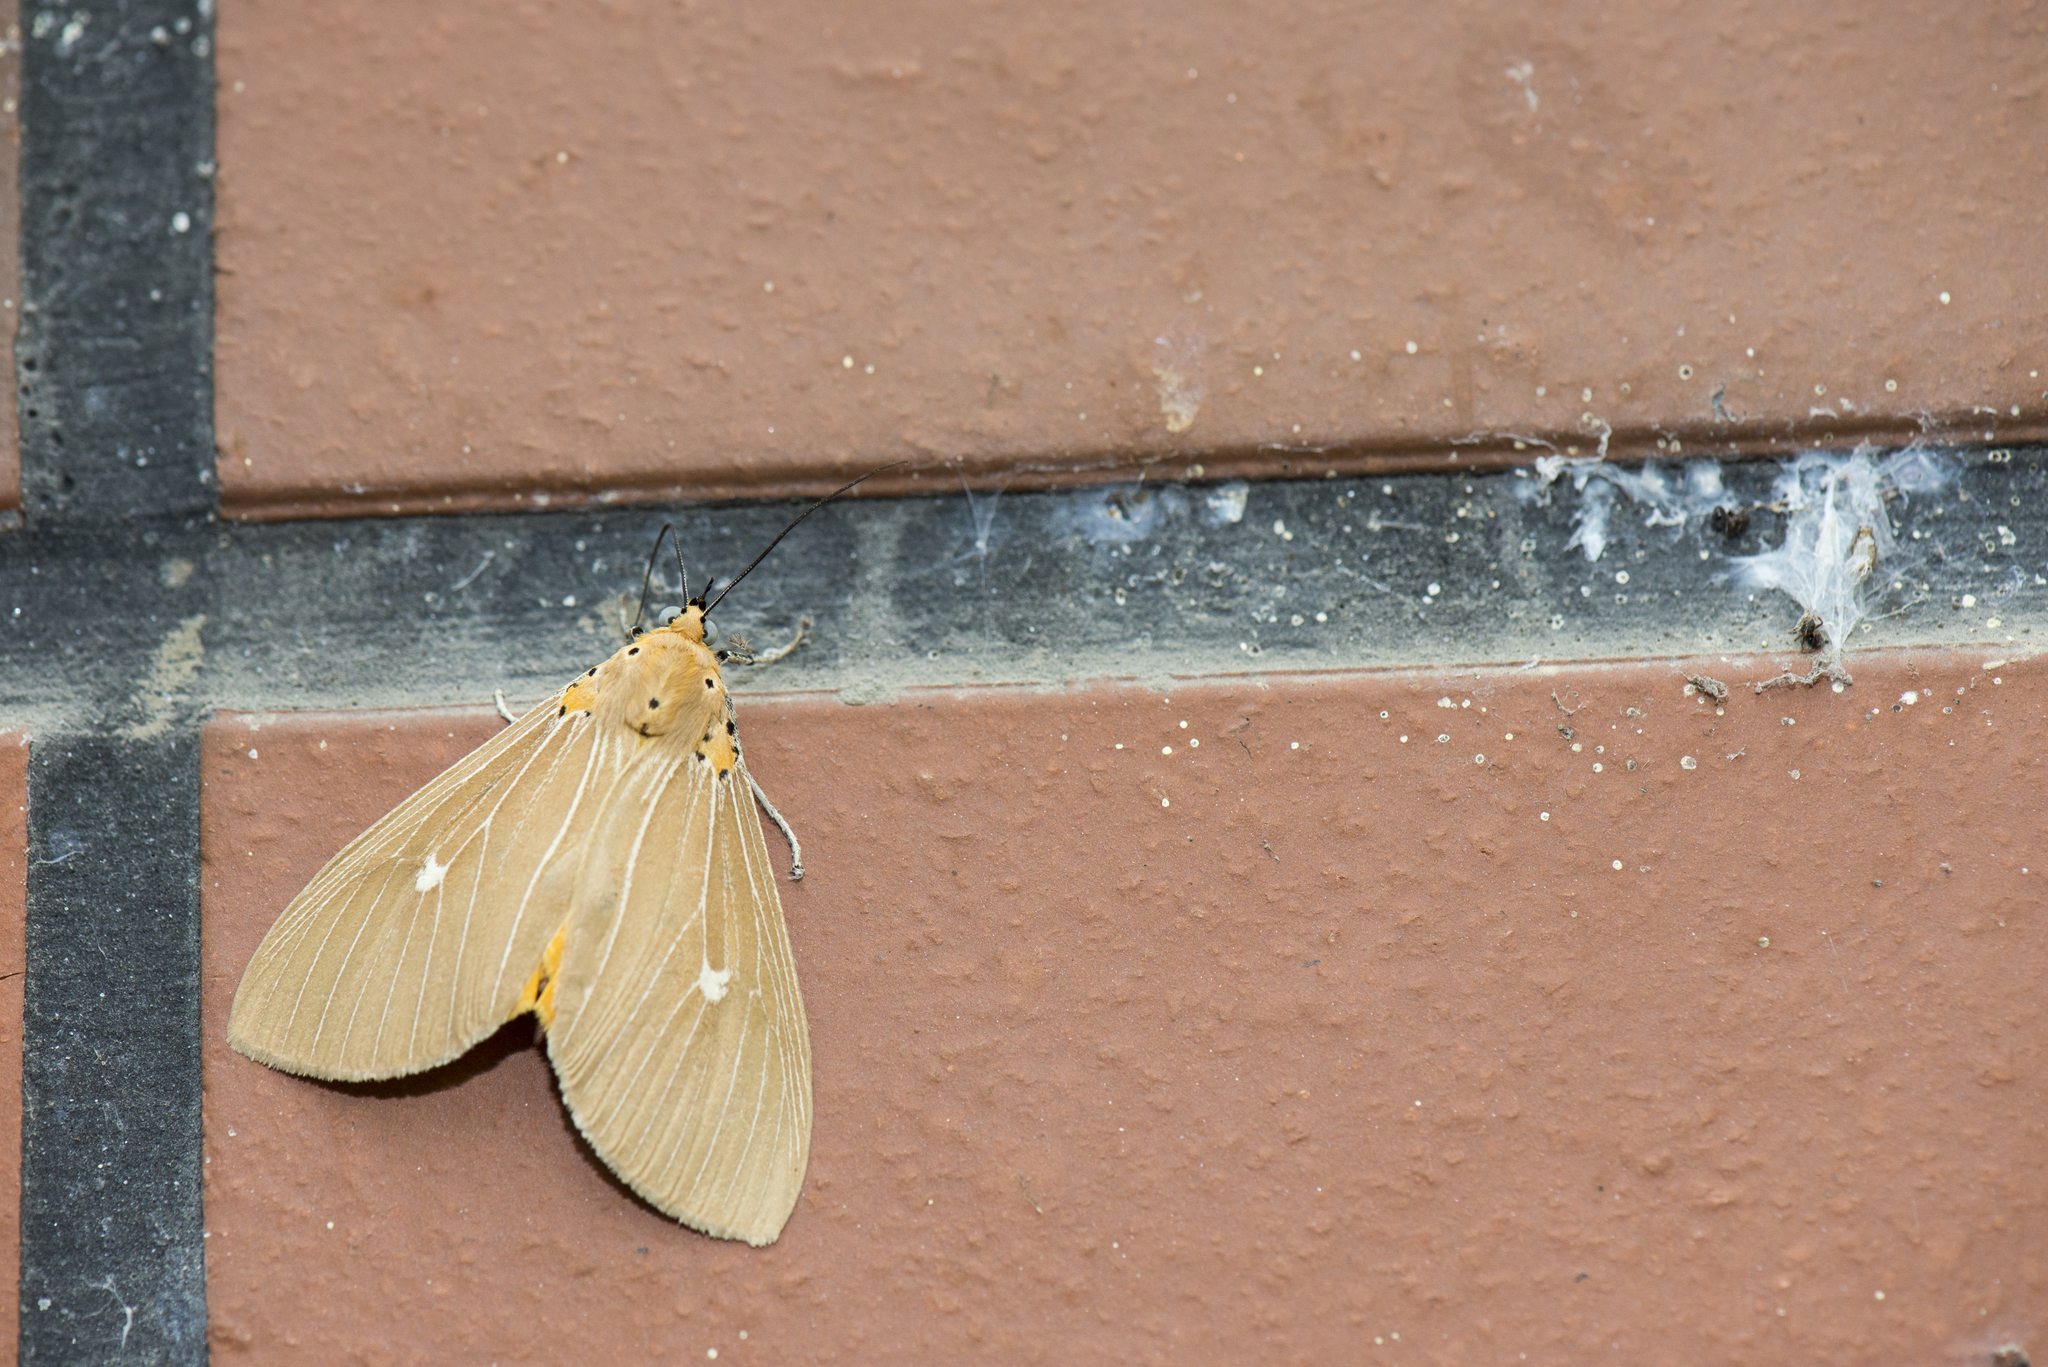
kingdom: Animalia
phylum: Arthropoda
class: Insecta
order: Lepidoptera
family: Erebidae
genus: Asota
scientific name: Asota caricae
